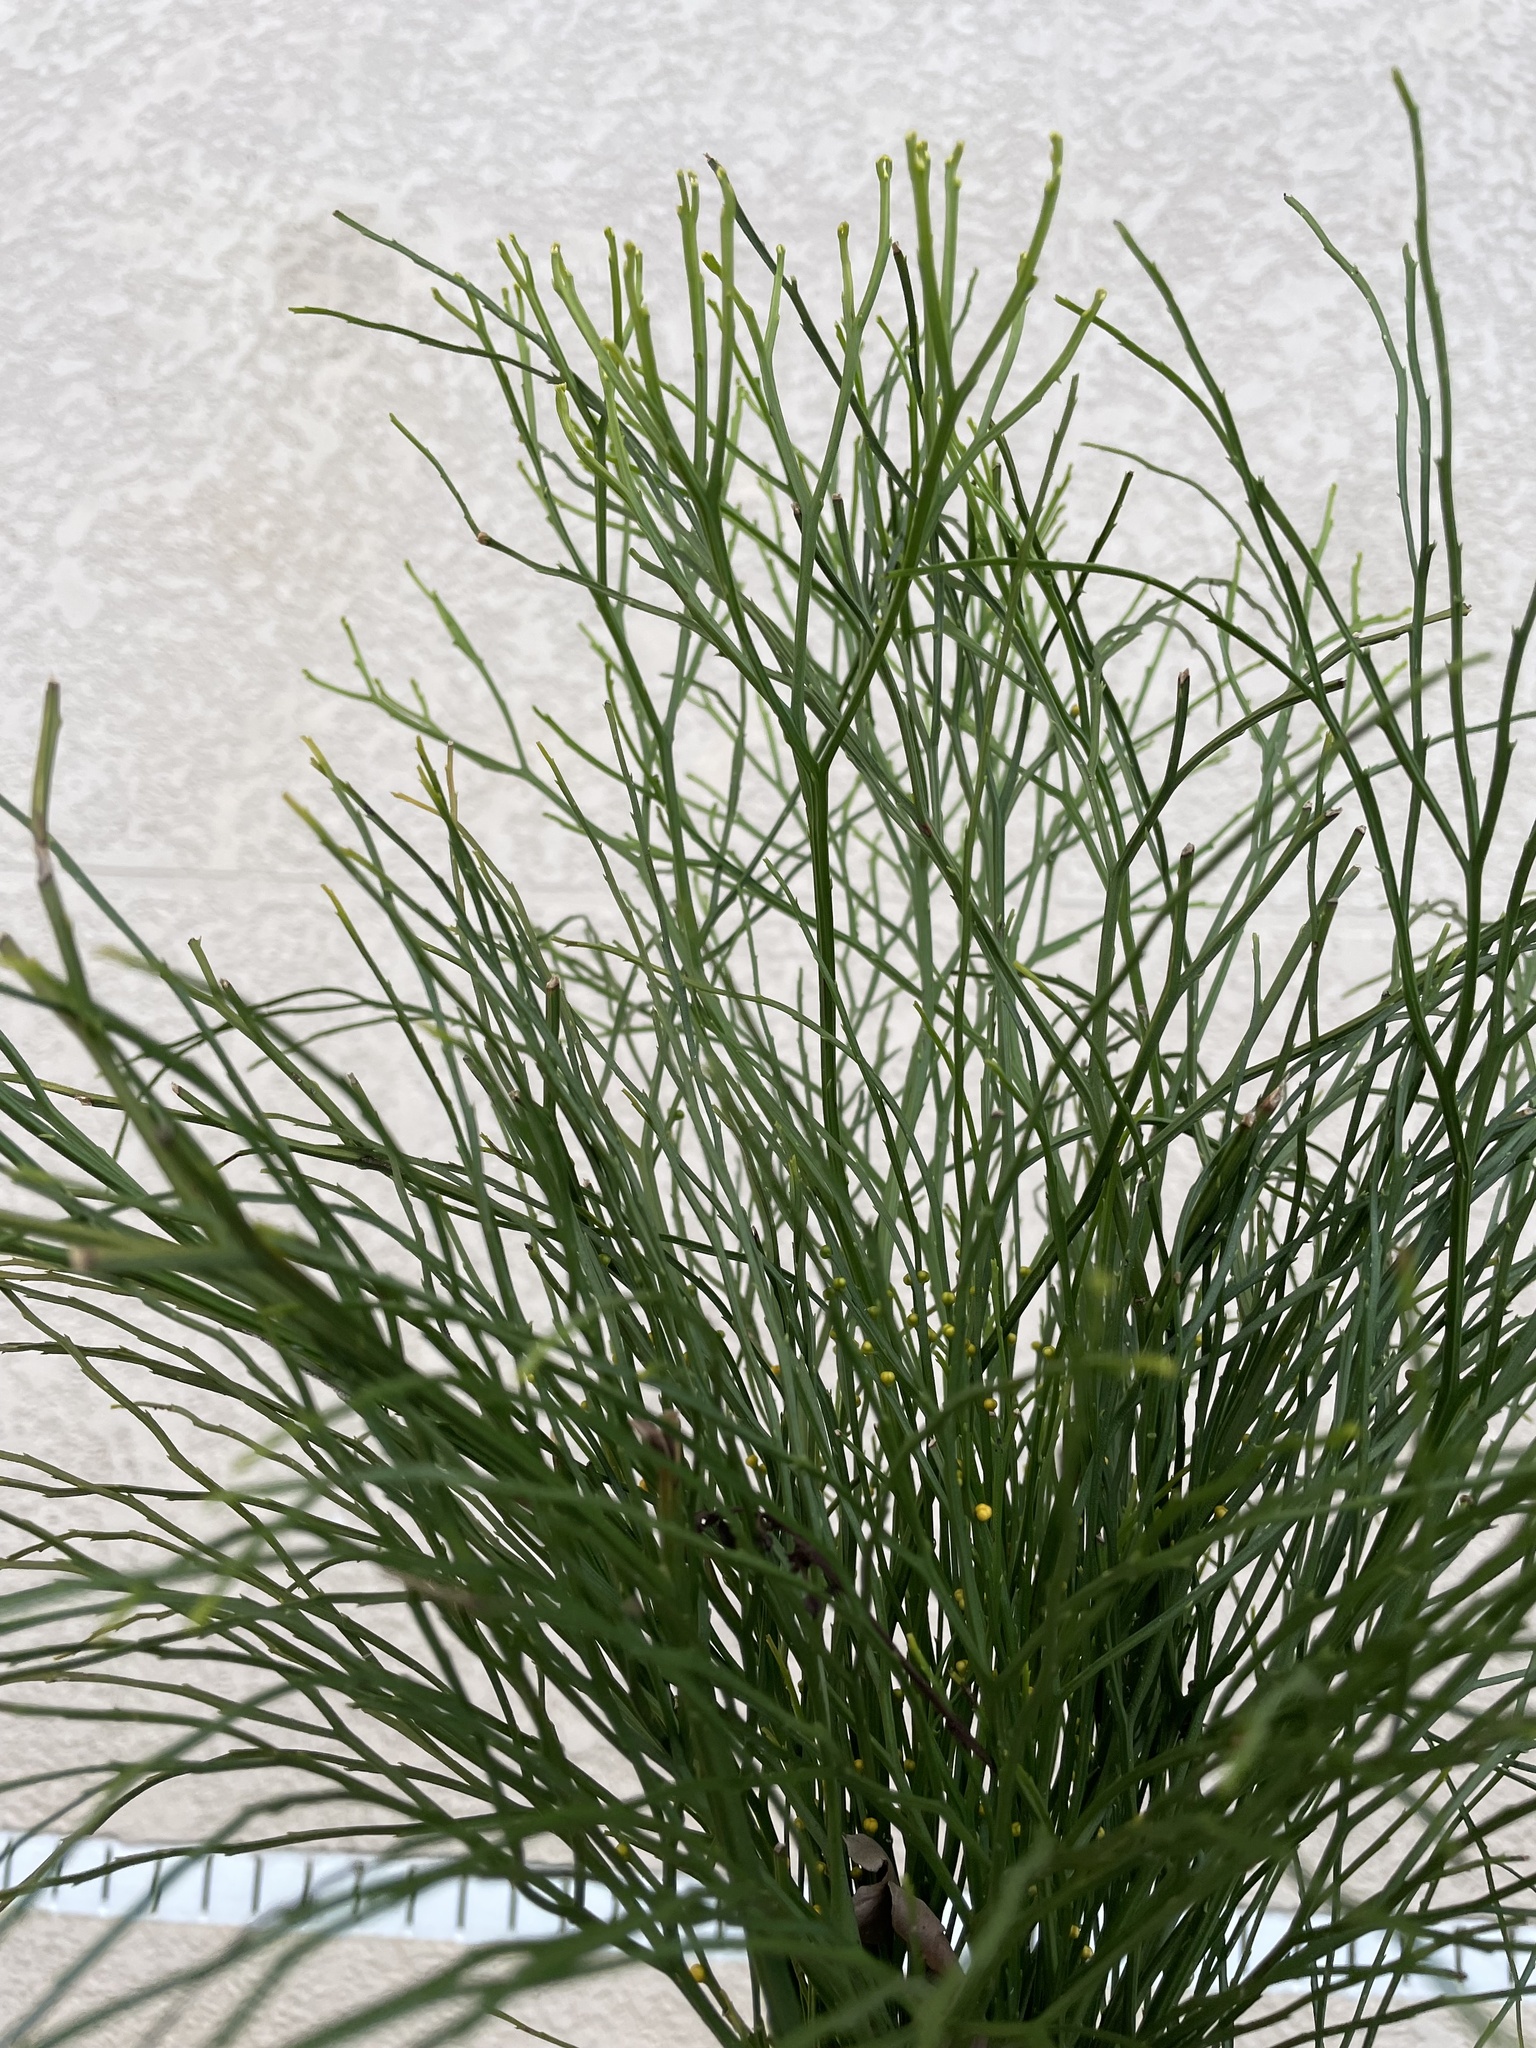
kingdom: Plantae
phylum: Tracheophyta
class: Polypodiopsida
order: Psilotales
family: Psilotaceae
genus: Psilotum
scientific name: Psilotum nudum
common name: Skeleton fork fern
